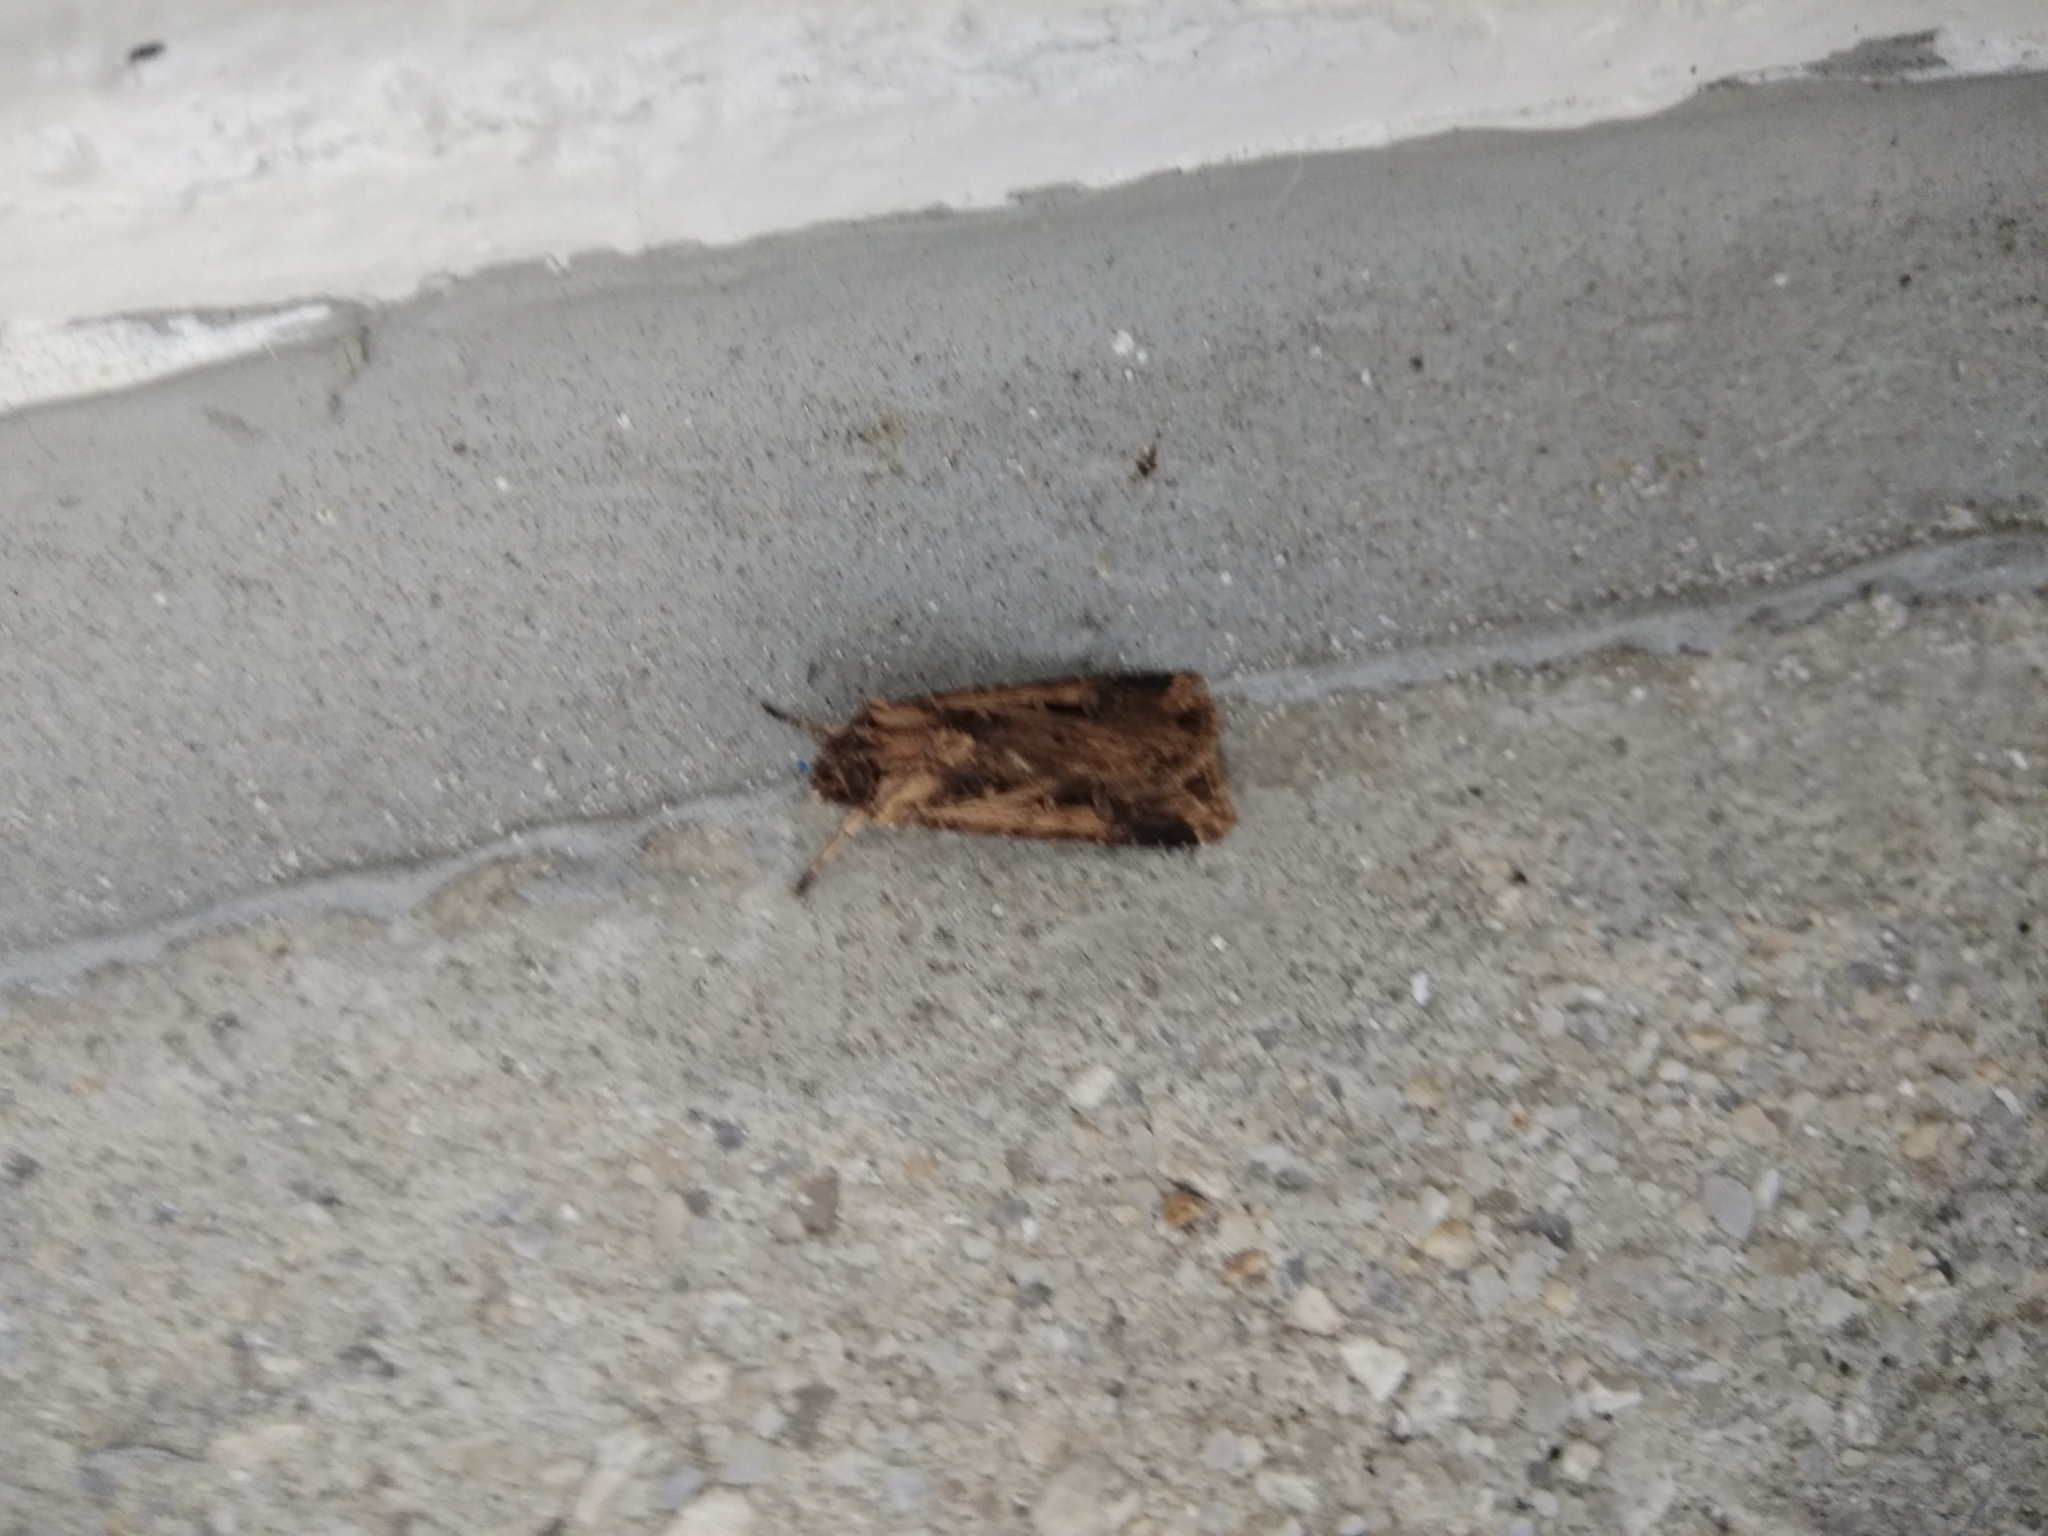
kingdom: Animalia
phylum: Arthropoda
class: Insecta
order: Lepidoptera
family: Noctuidae
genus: Feltia
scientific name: Feltia subterranea
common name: Granulate cutworm
